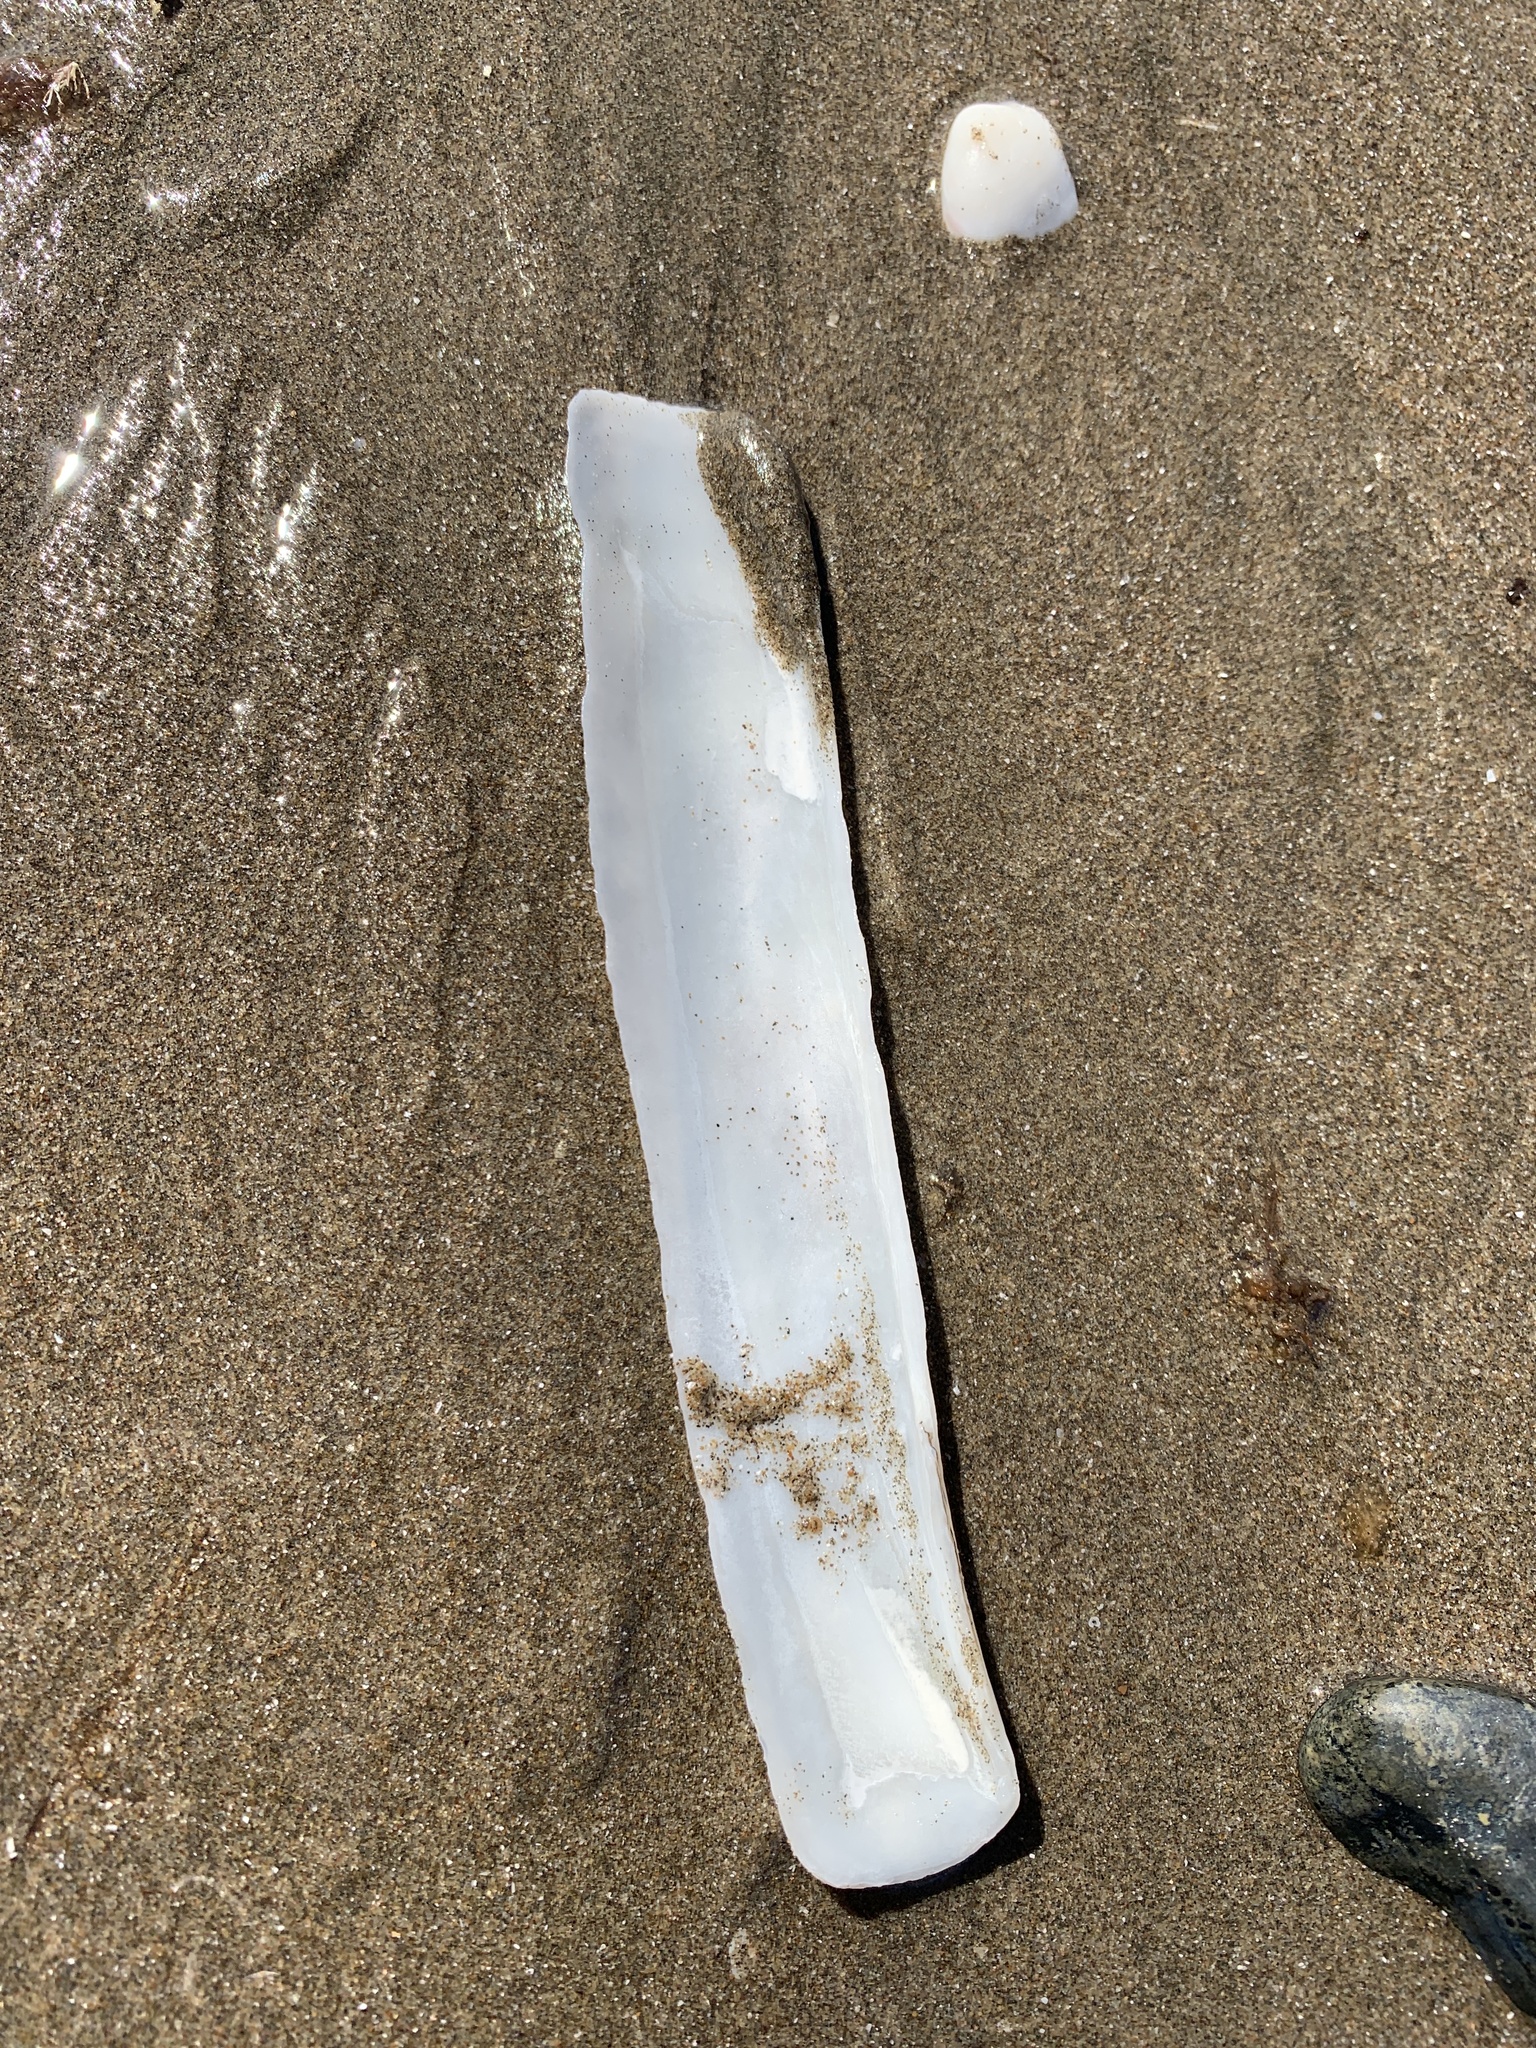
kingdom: Animalia
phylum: Mollusca
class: Bivalvia
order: Adapedonta
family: Pharidae
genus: Ensis
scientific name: Ensis macha
